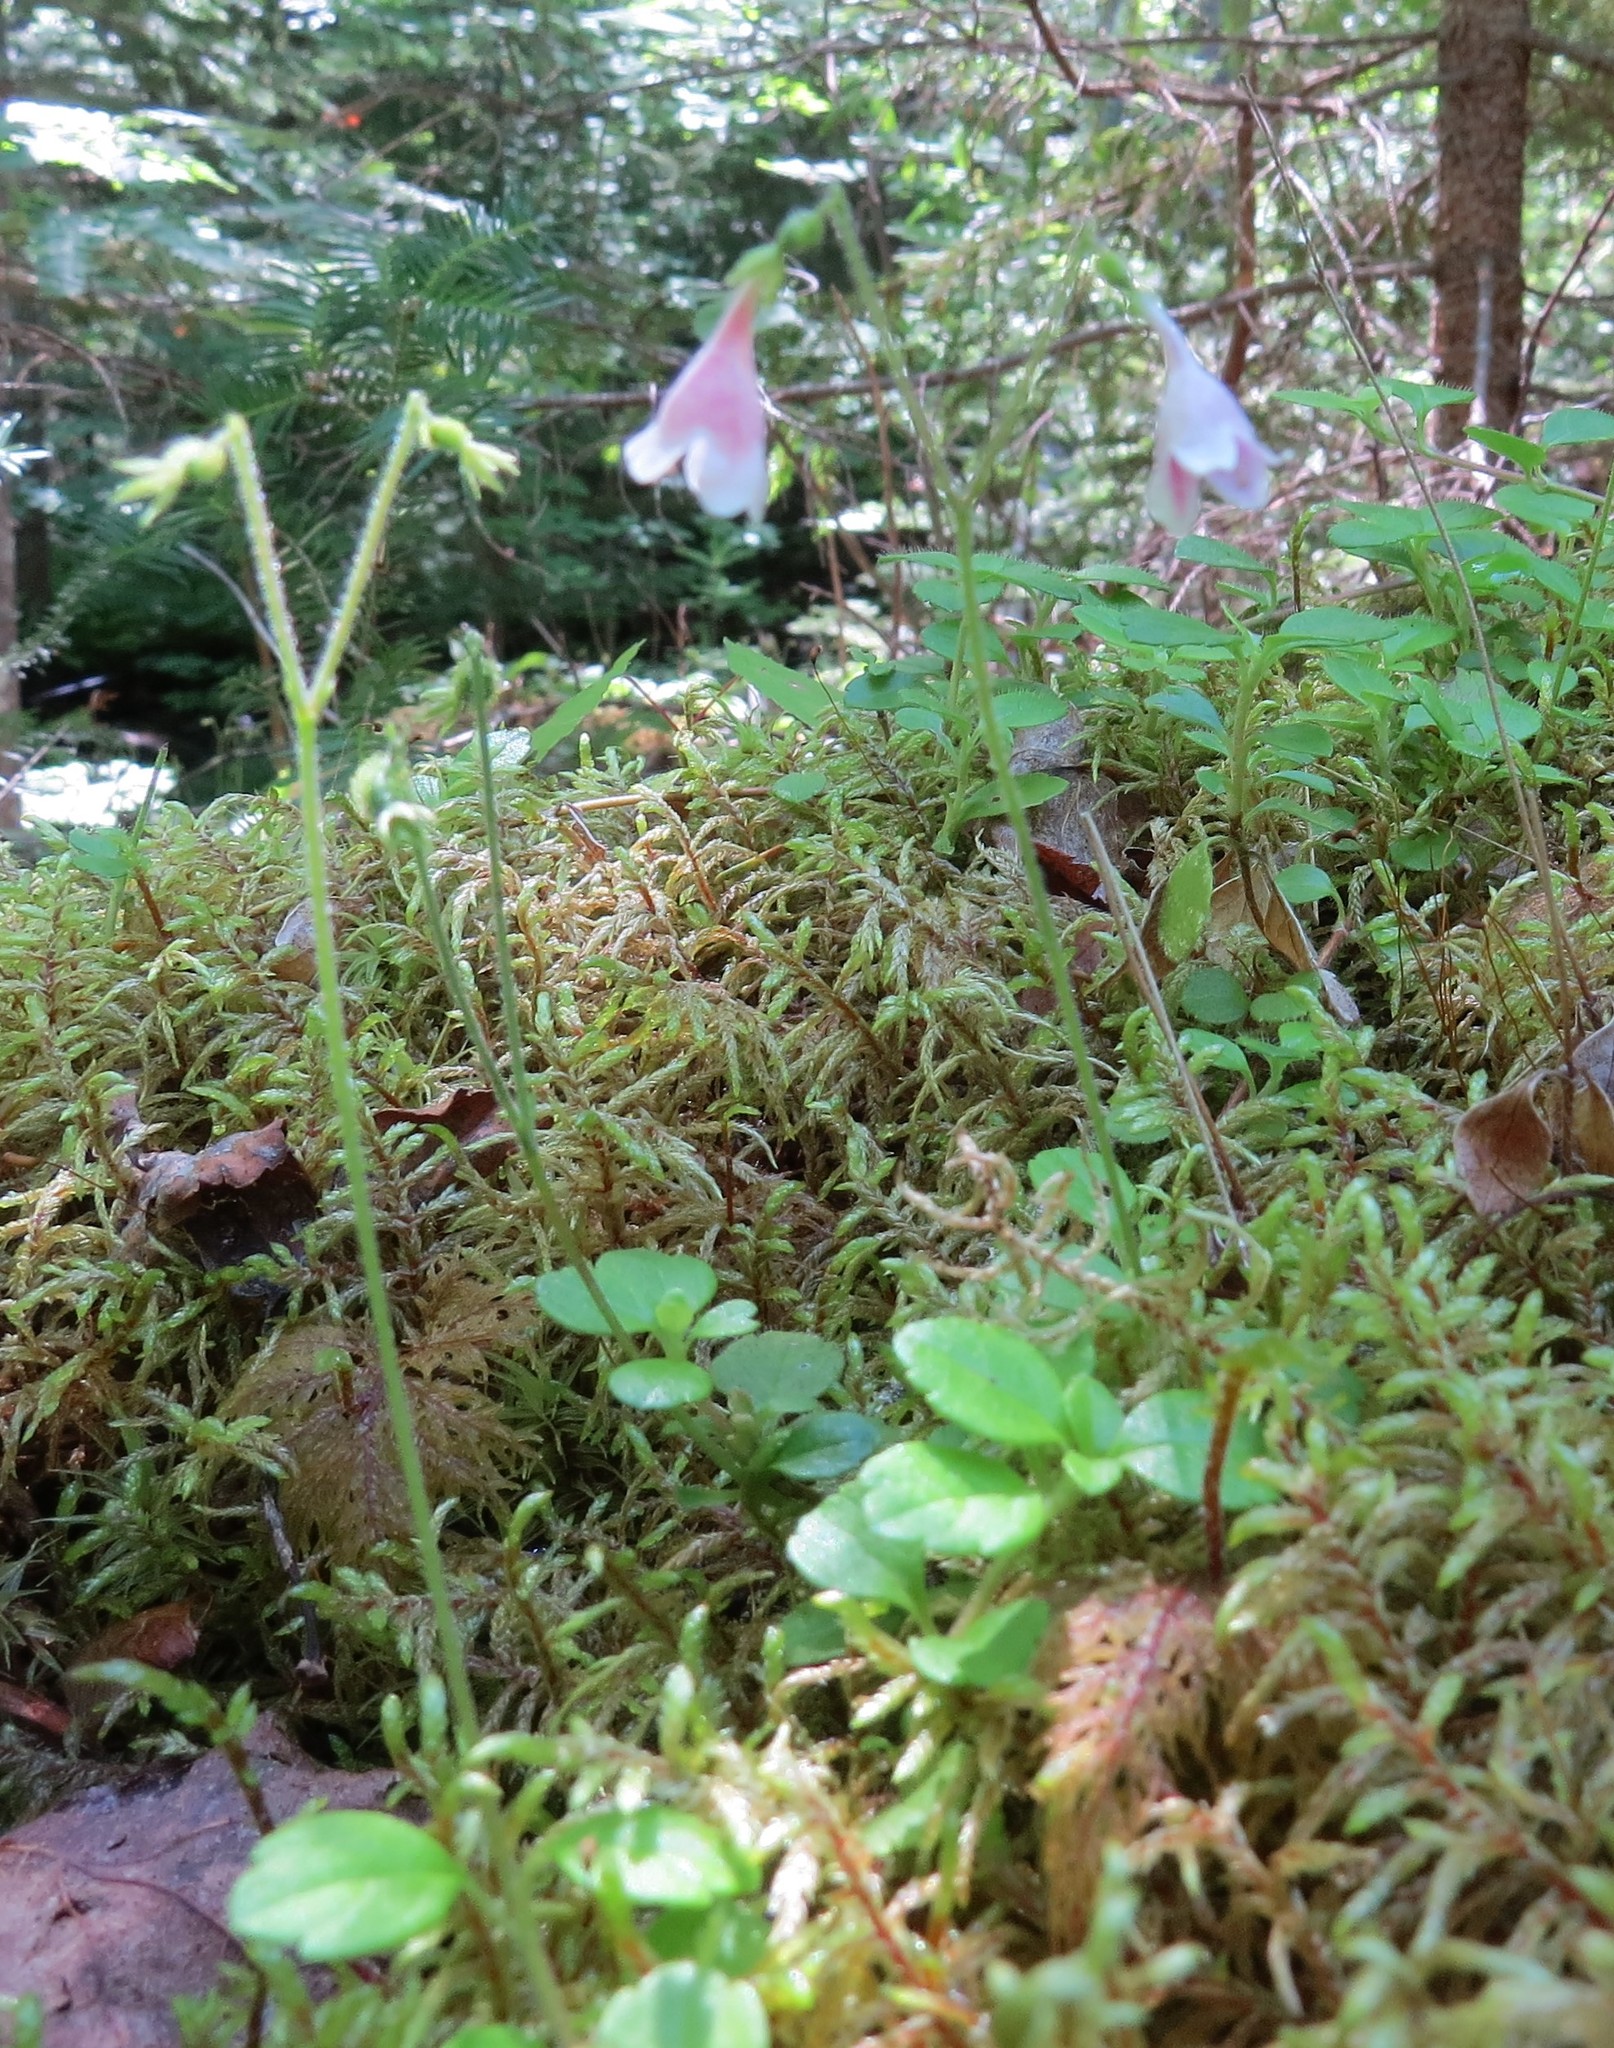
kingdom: Plantae
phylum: Tracheophyta
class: Magnoliopsida
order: Dipsacales
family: Caprifoliaceae
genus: Linnaea
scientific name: Linnaea borealis
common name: Twinflower
